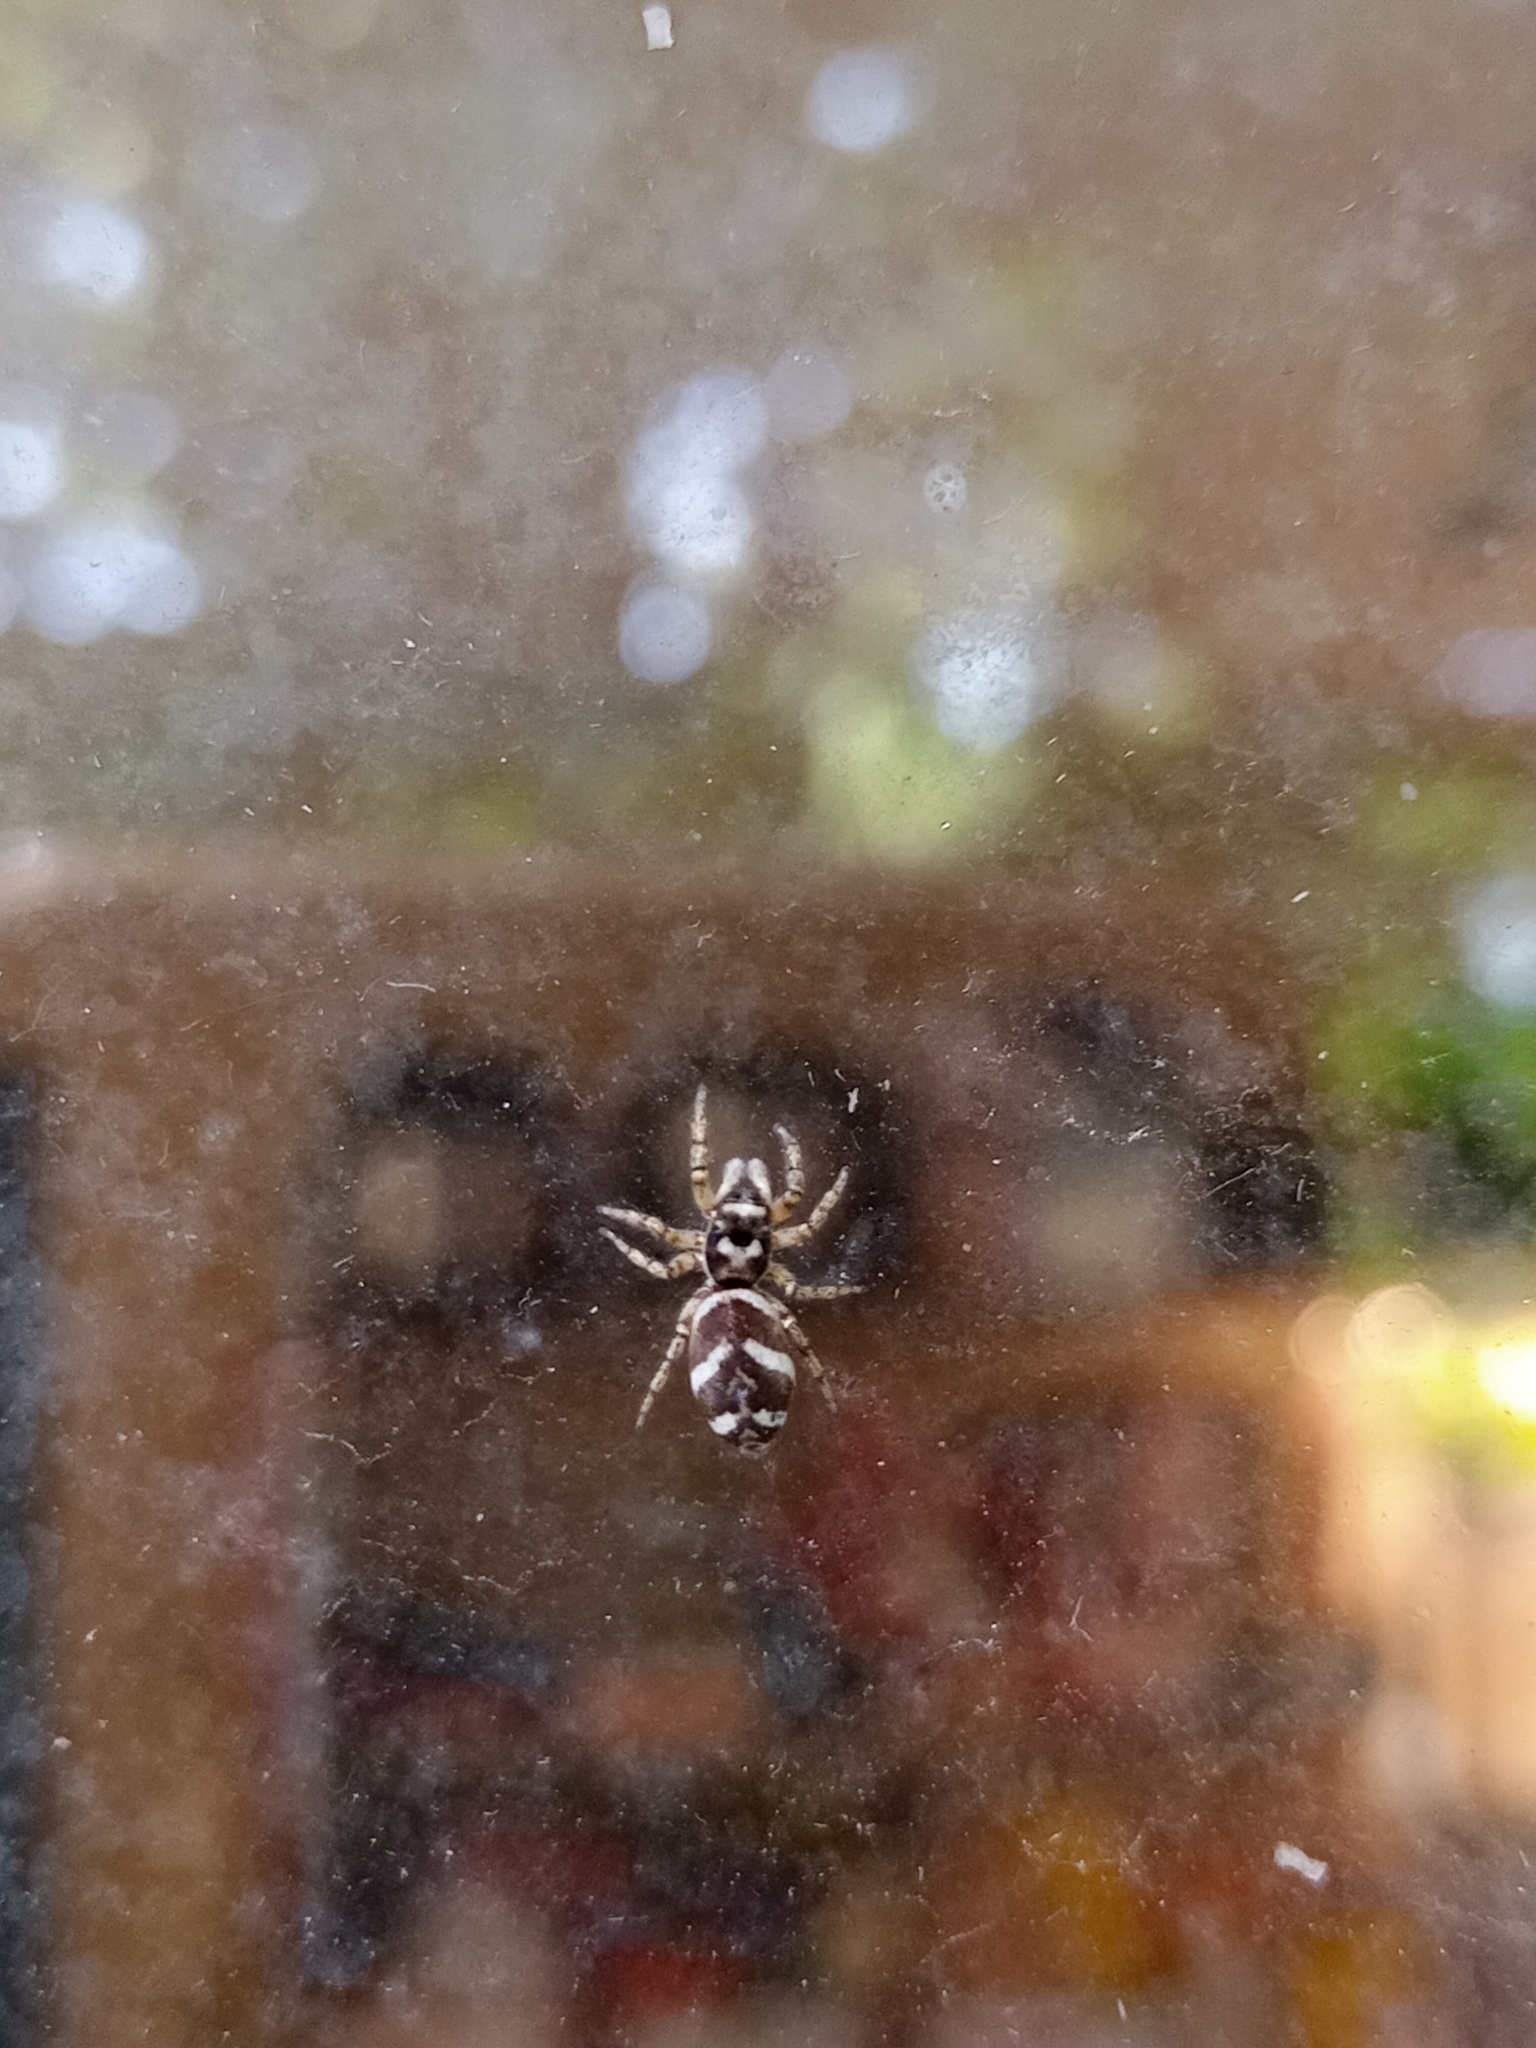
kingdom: Animalia
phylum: Arthropoda
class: Arachnida
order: Araneae
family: Salticidae
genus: Salticus
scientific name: Salticus scenicus
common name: Zebra jumper
